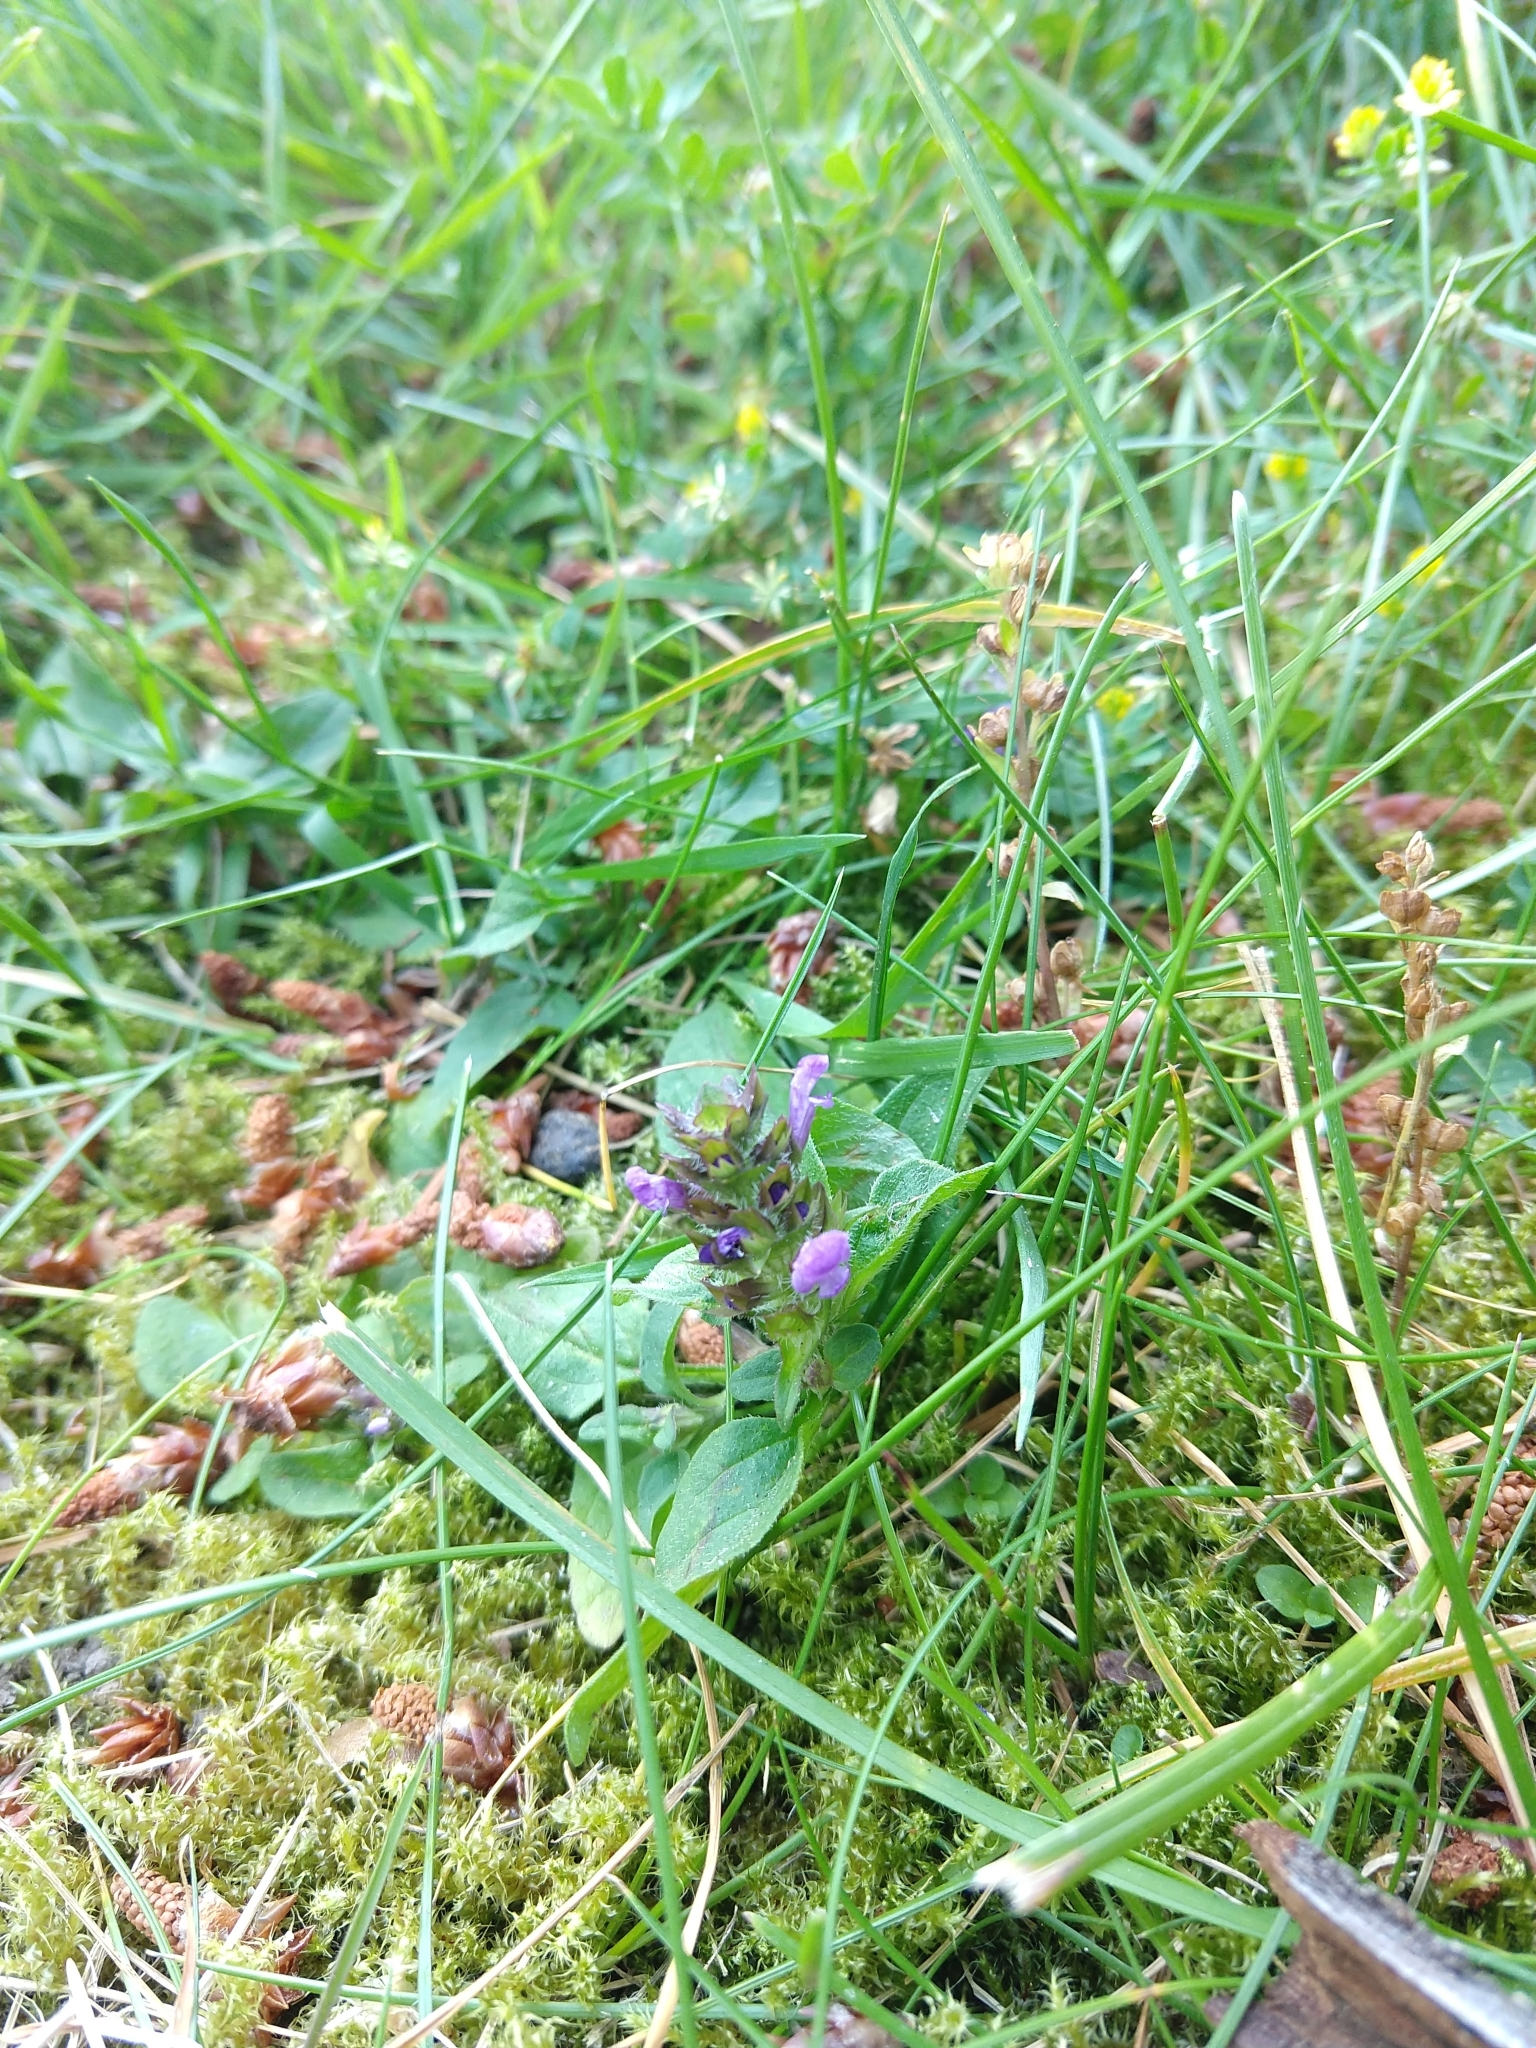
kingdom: Plantae
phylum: Tracheophyta
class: Magnoliopsida
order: Lamiales
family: Lamiaceae
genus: Prunella
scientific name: Prunella vulgaris
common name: Heal-all
